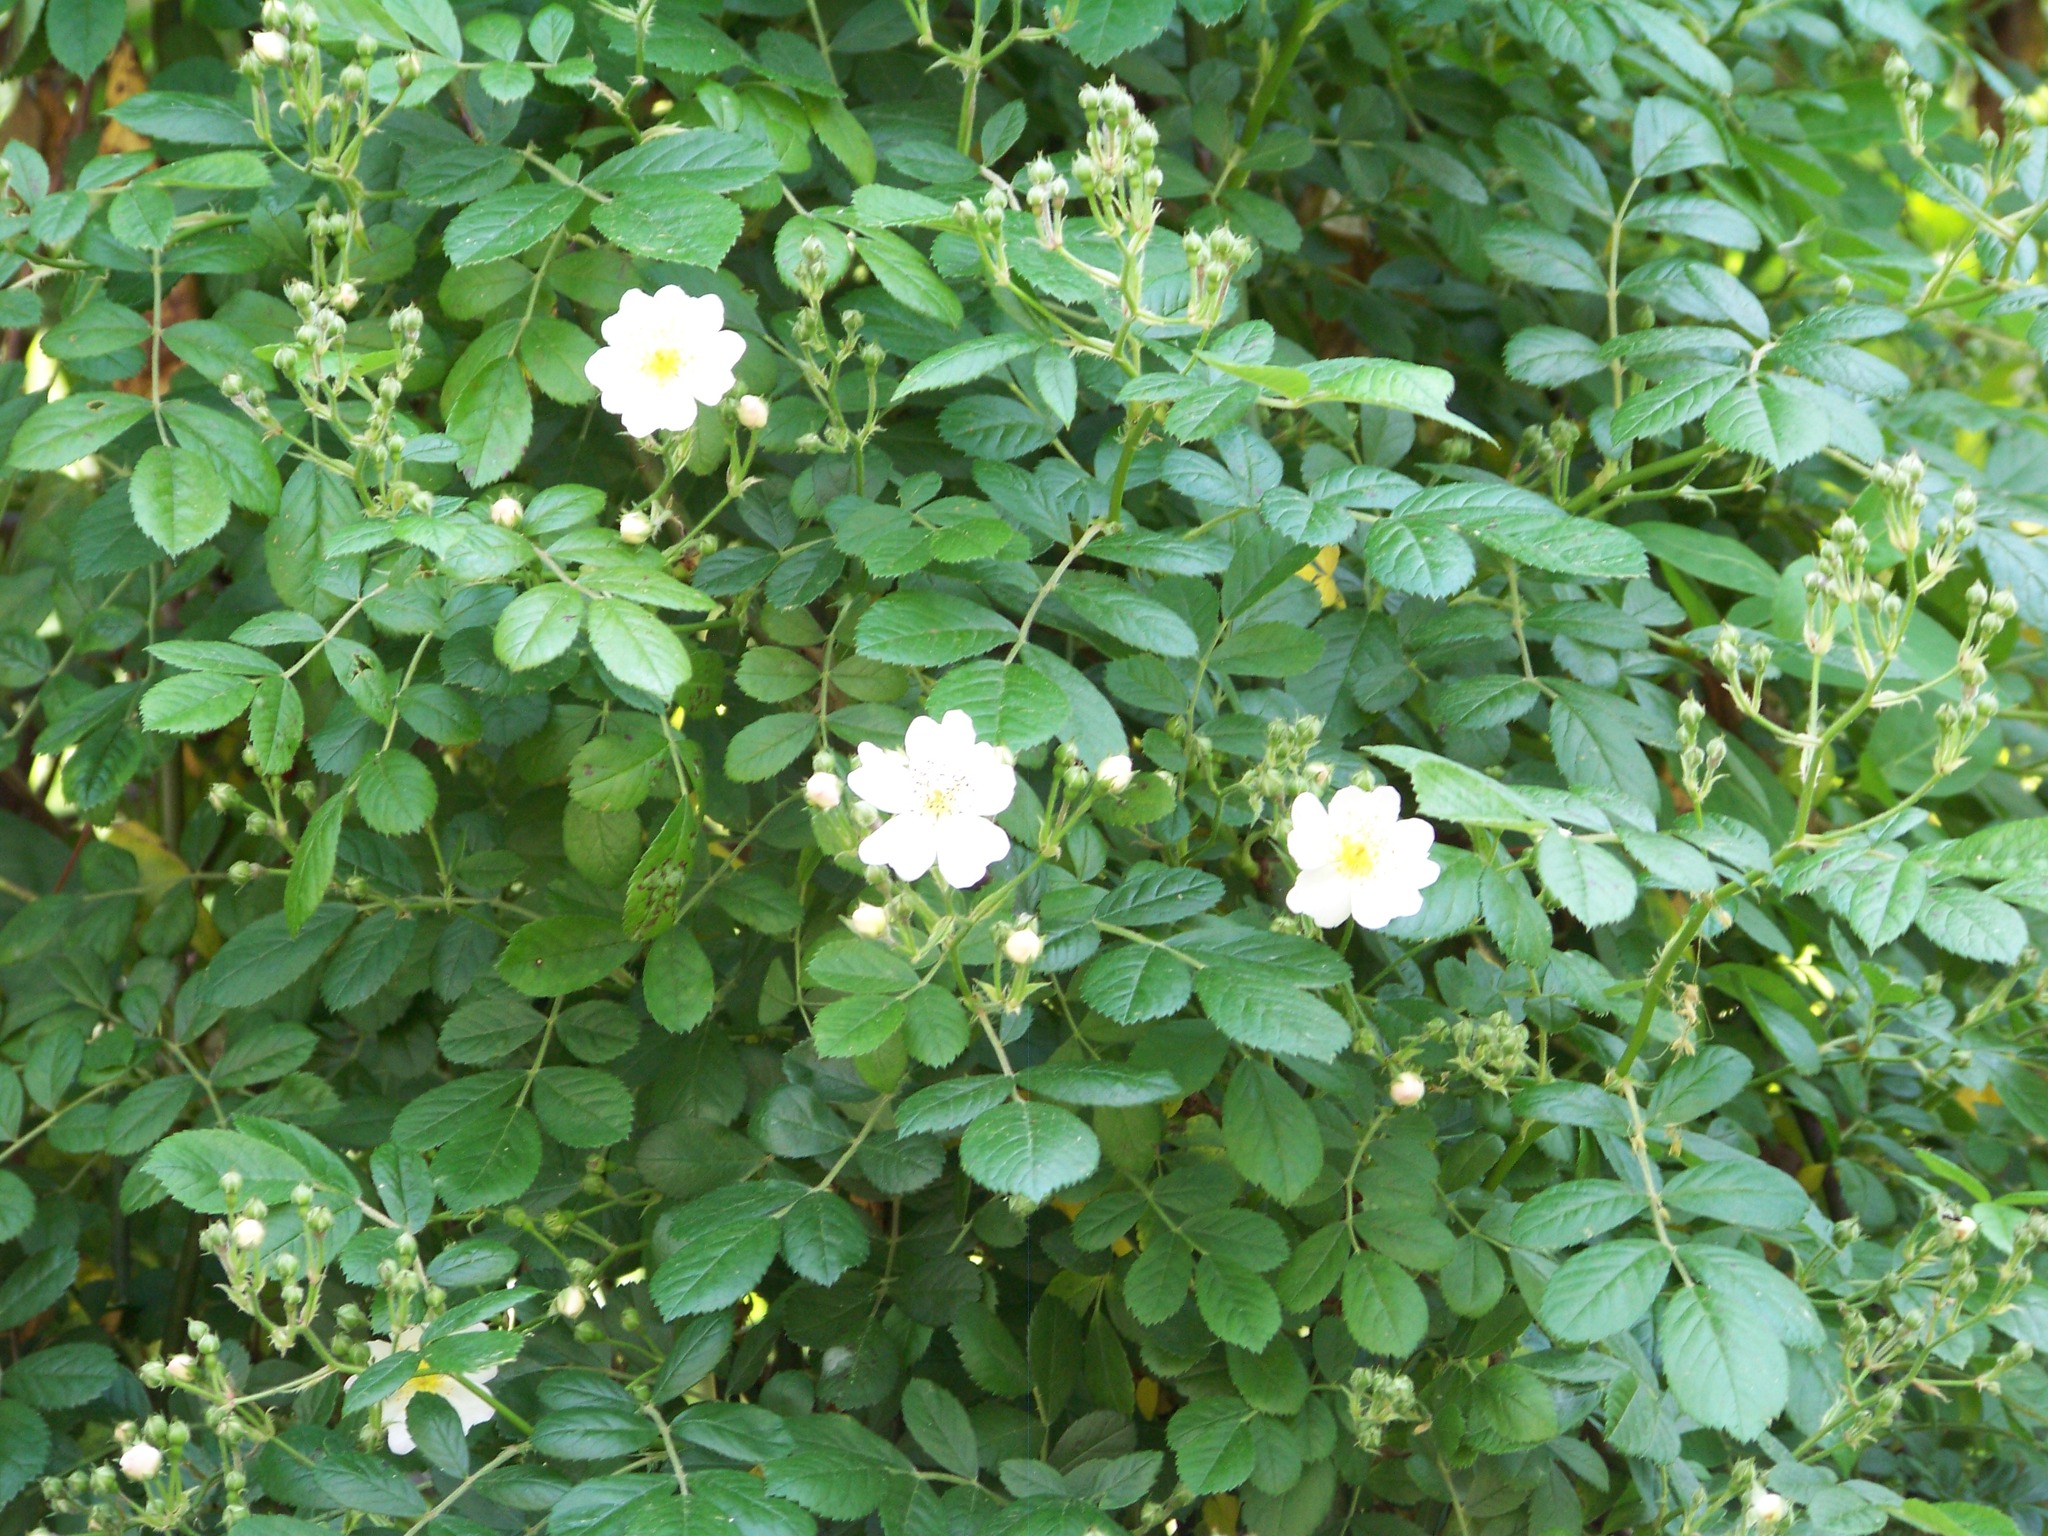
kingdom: Plantae
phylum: Tracheophyta
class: Magnoliopsida
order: Rosales
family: Rosaceae
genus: Rosa
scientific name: Rosa multiflora
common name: Multiflora rose
